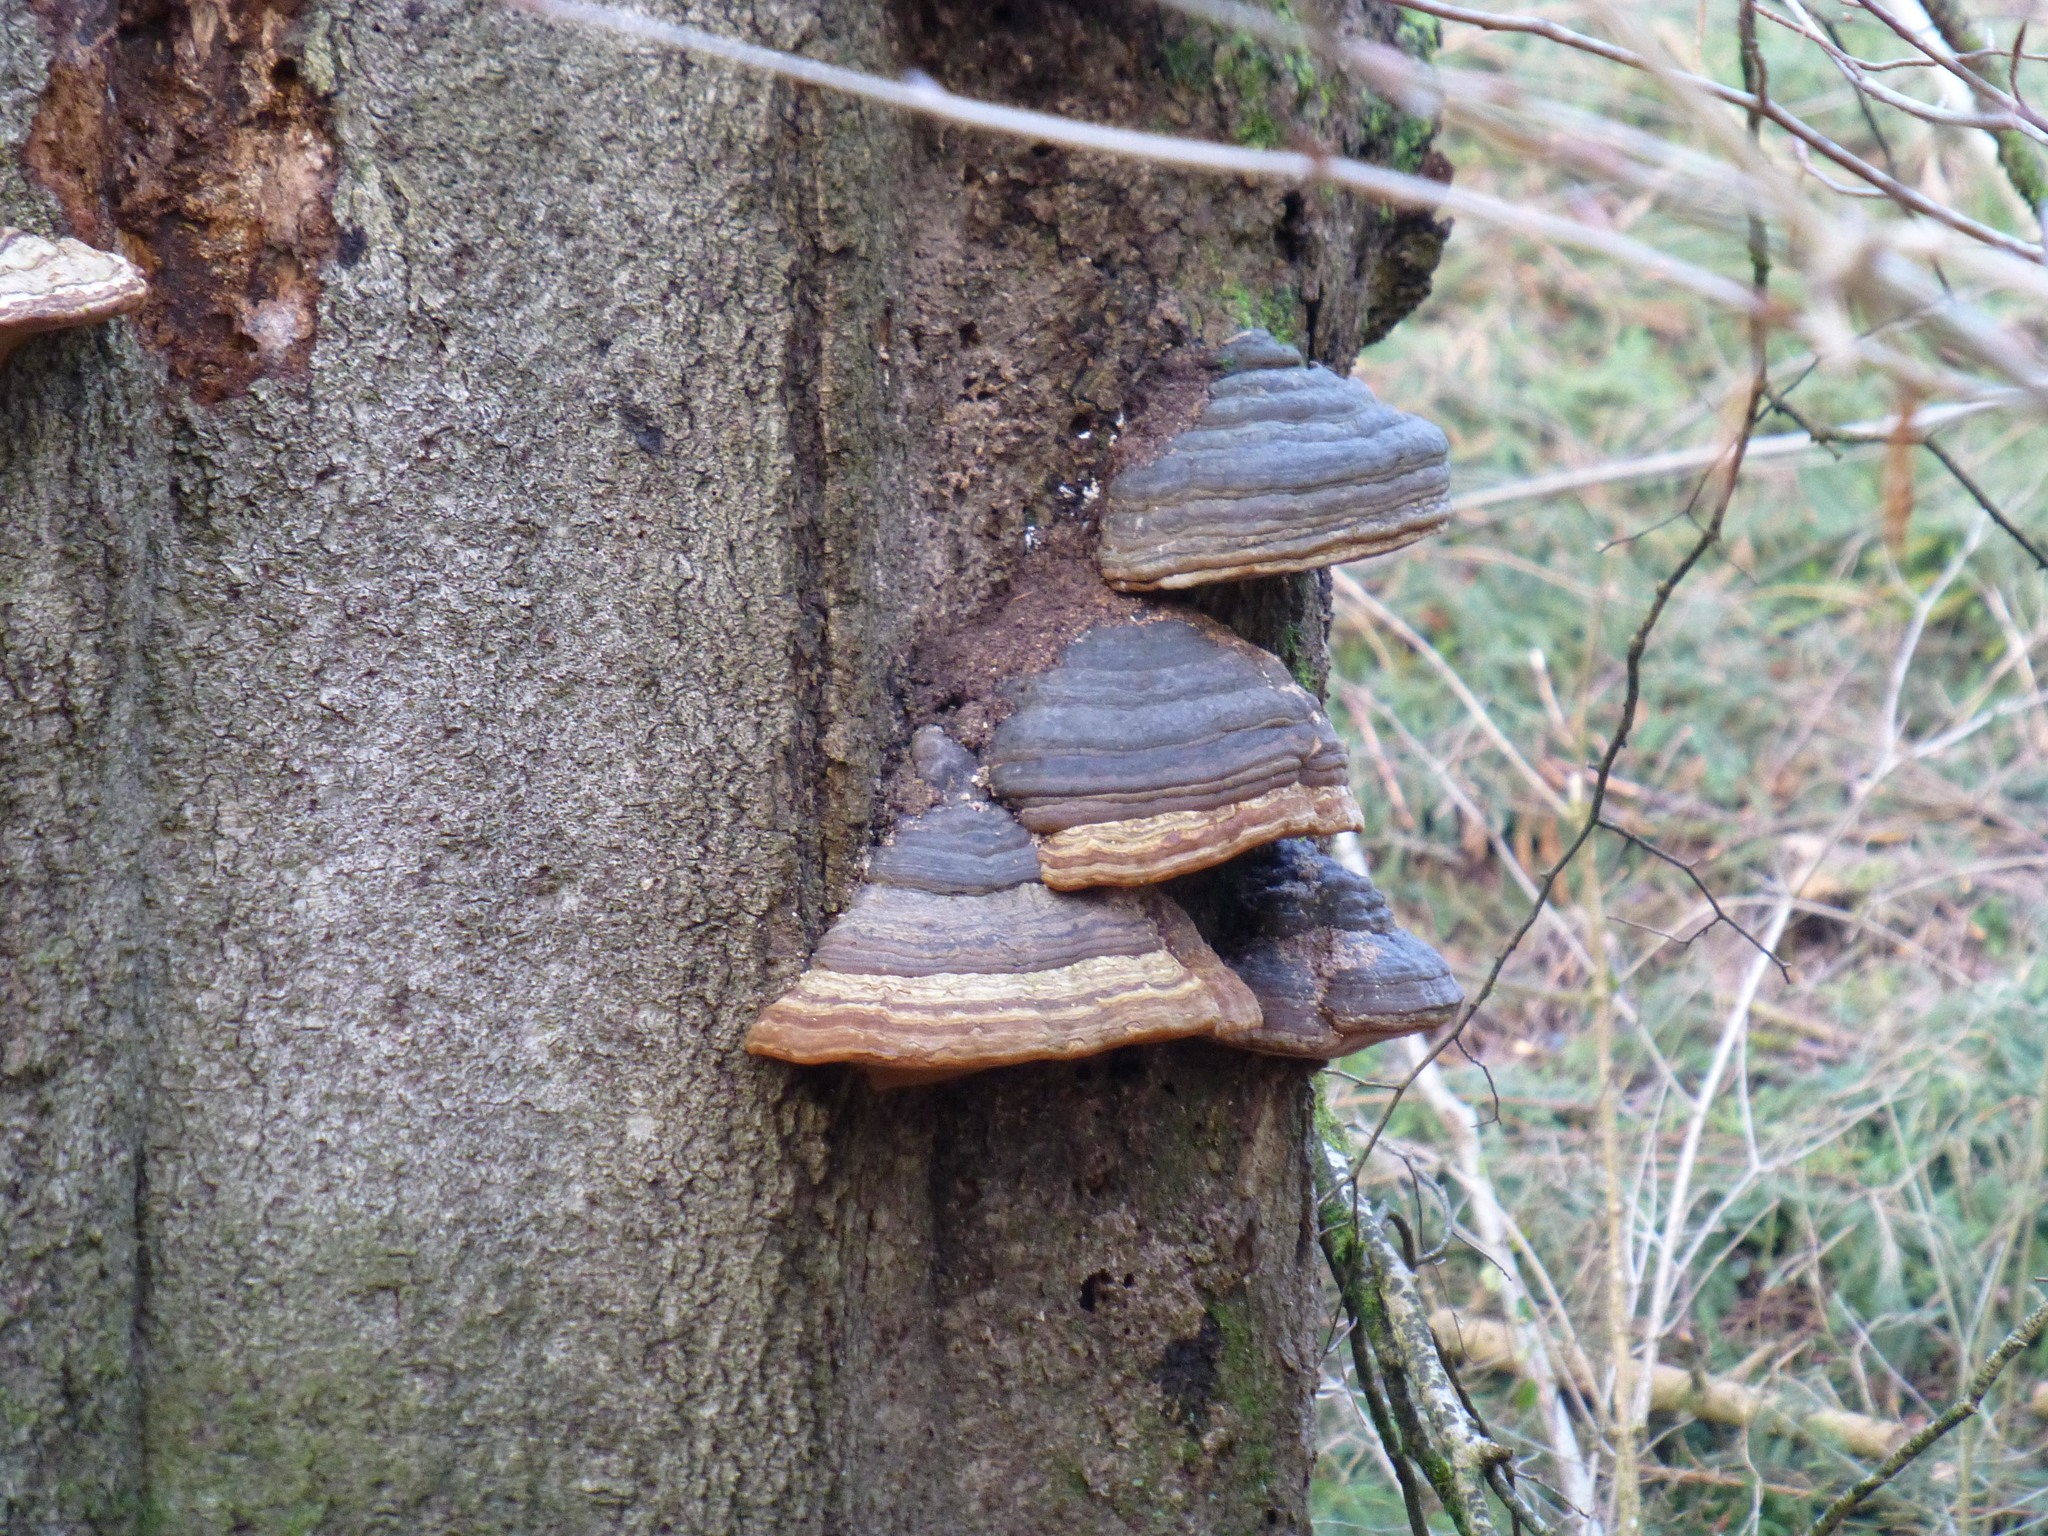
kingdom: Fungi
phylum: Basidiomycota
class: Agaricomycetes
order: Polyporales
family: Polyporaceae
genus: Fomes
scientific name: Fomes fomentarius
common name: Hoof fungus
